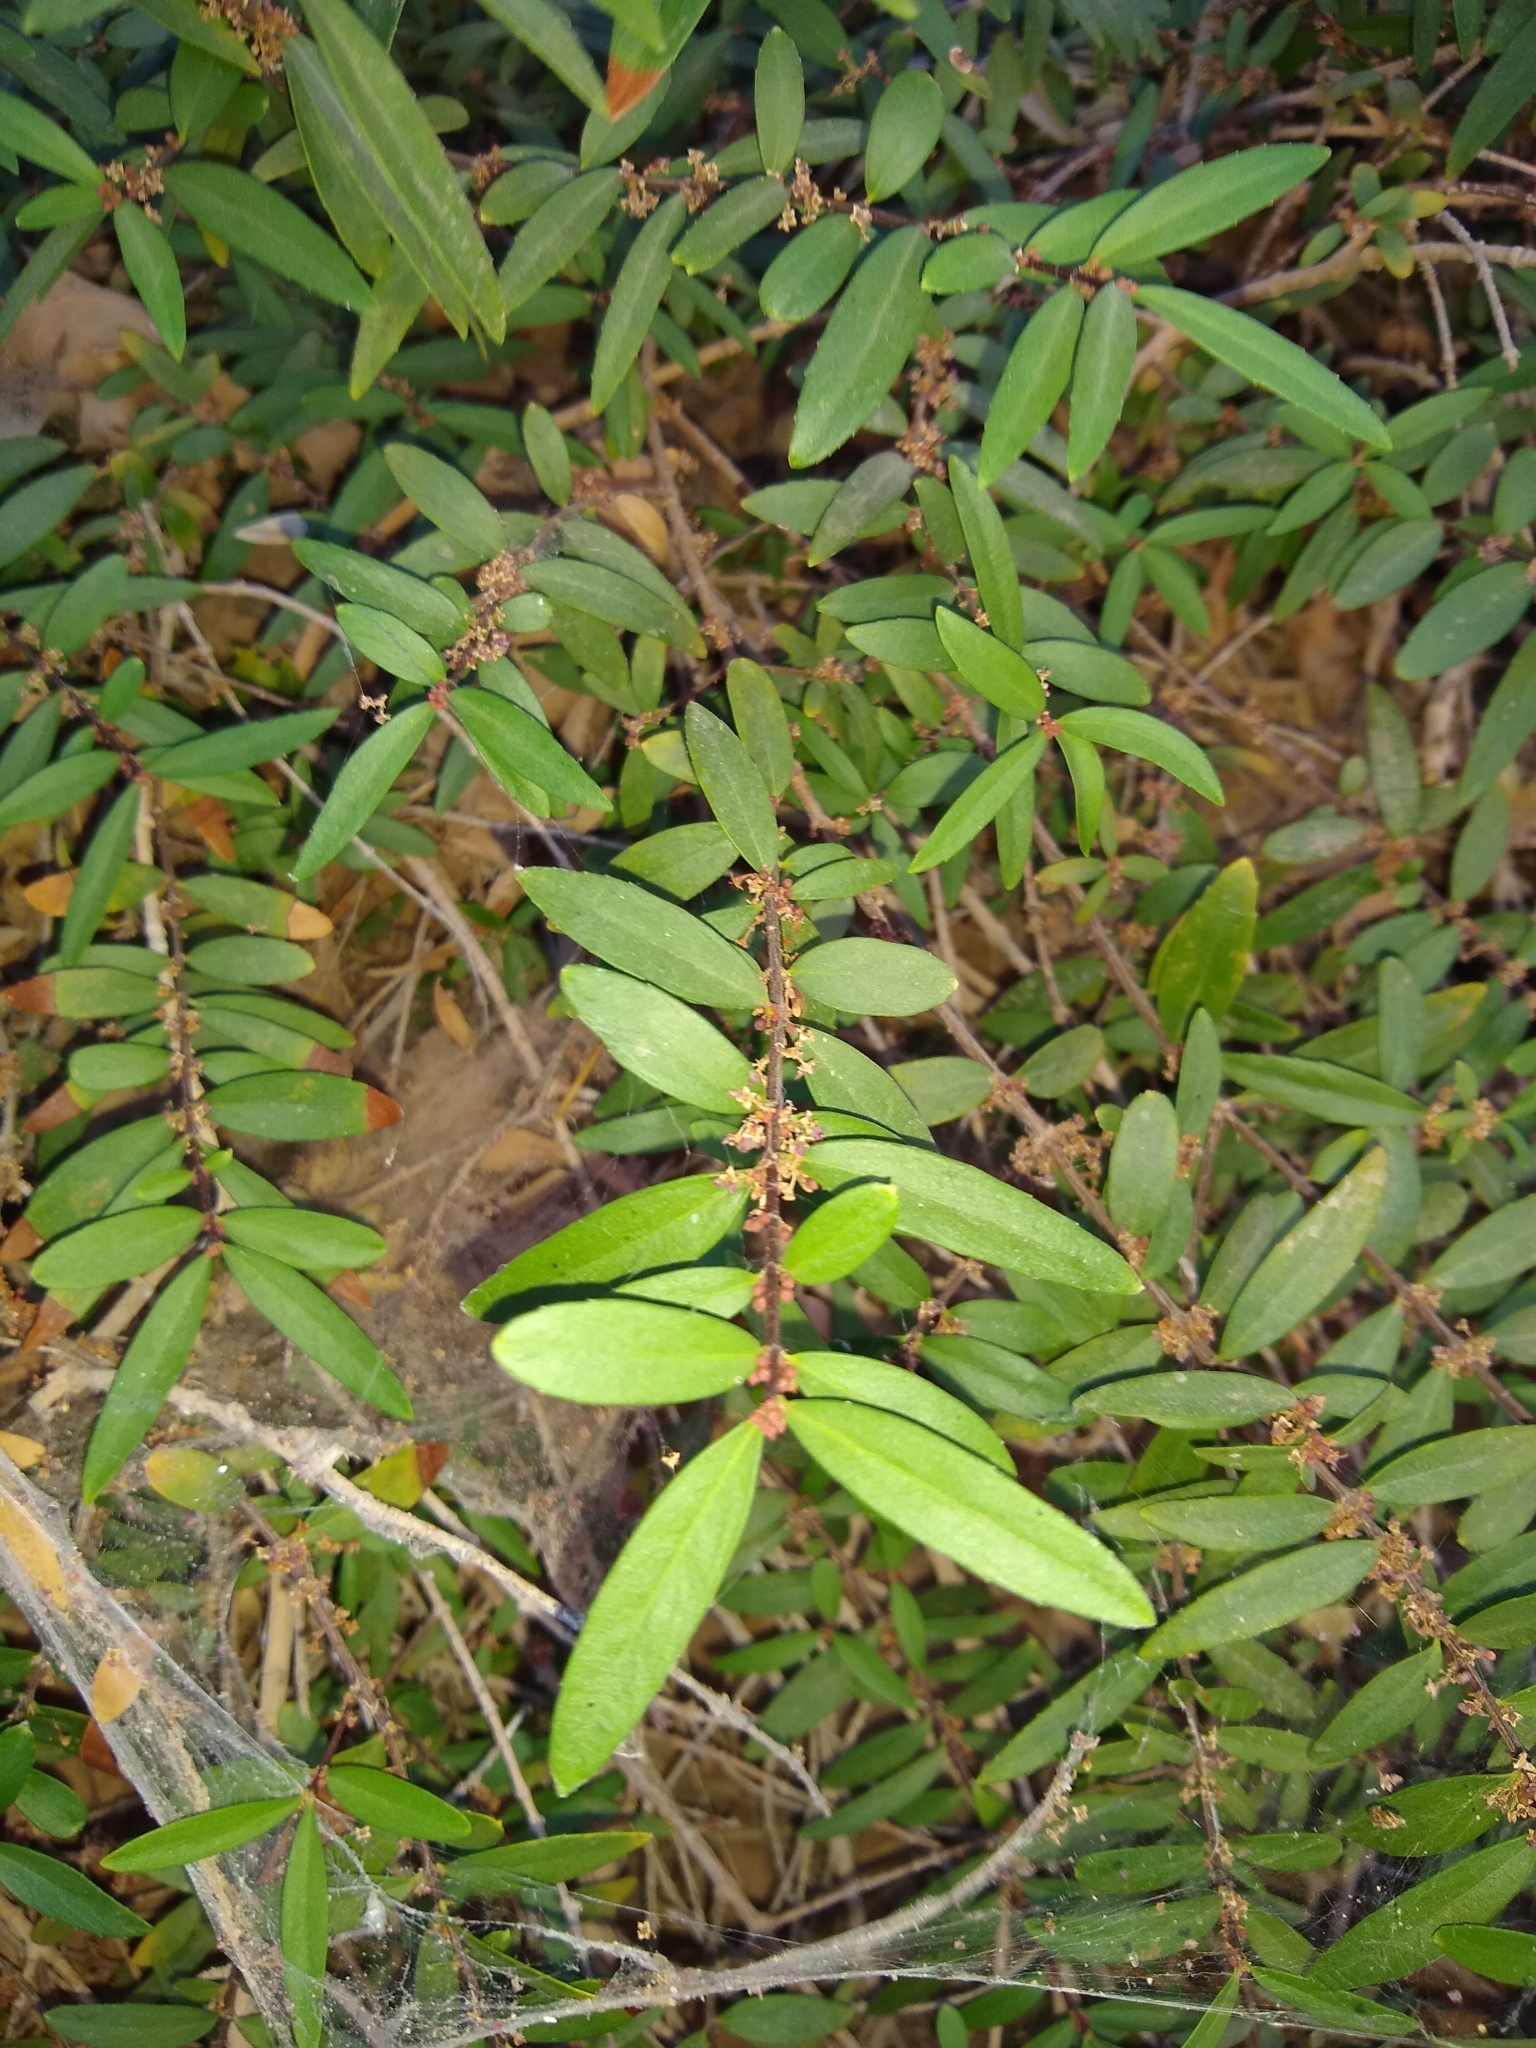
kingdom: Plantae
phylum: Tracheophyta
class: Magnoliopsida
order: Celastrales
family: Celastraceae
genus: Paxistima
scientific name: Paxistima myrsinites
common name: Mountain-lover
